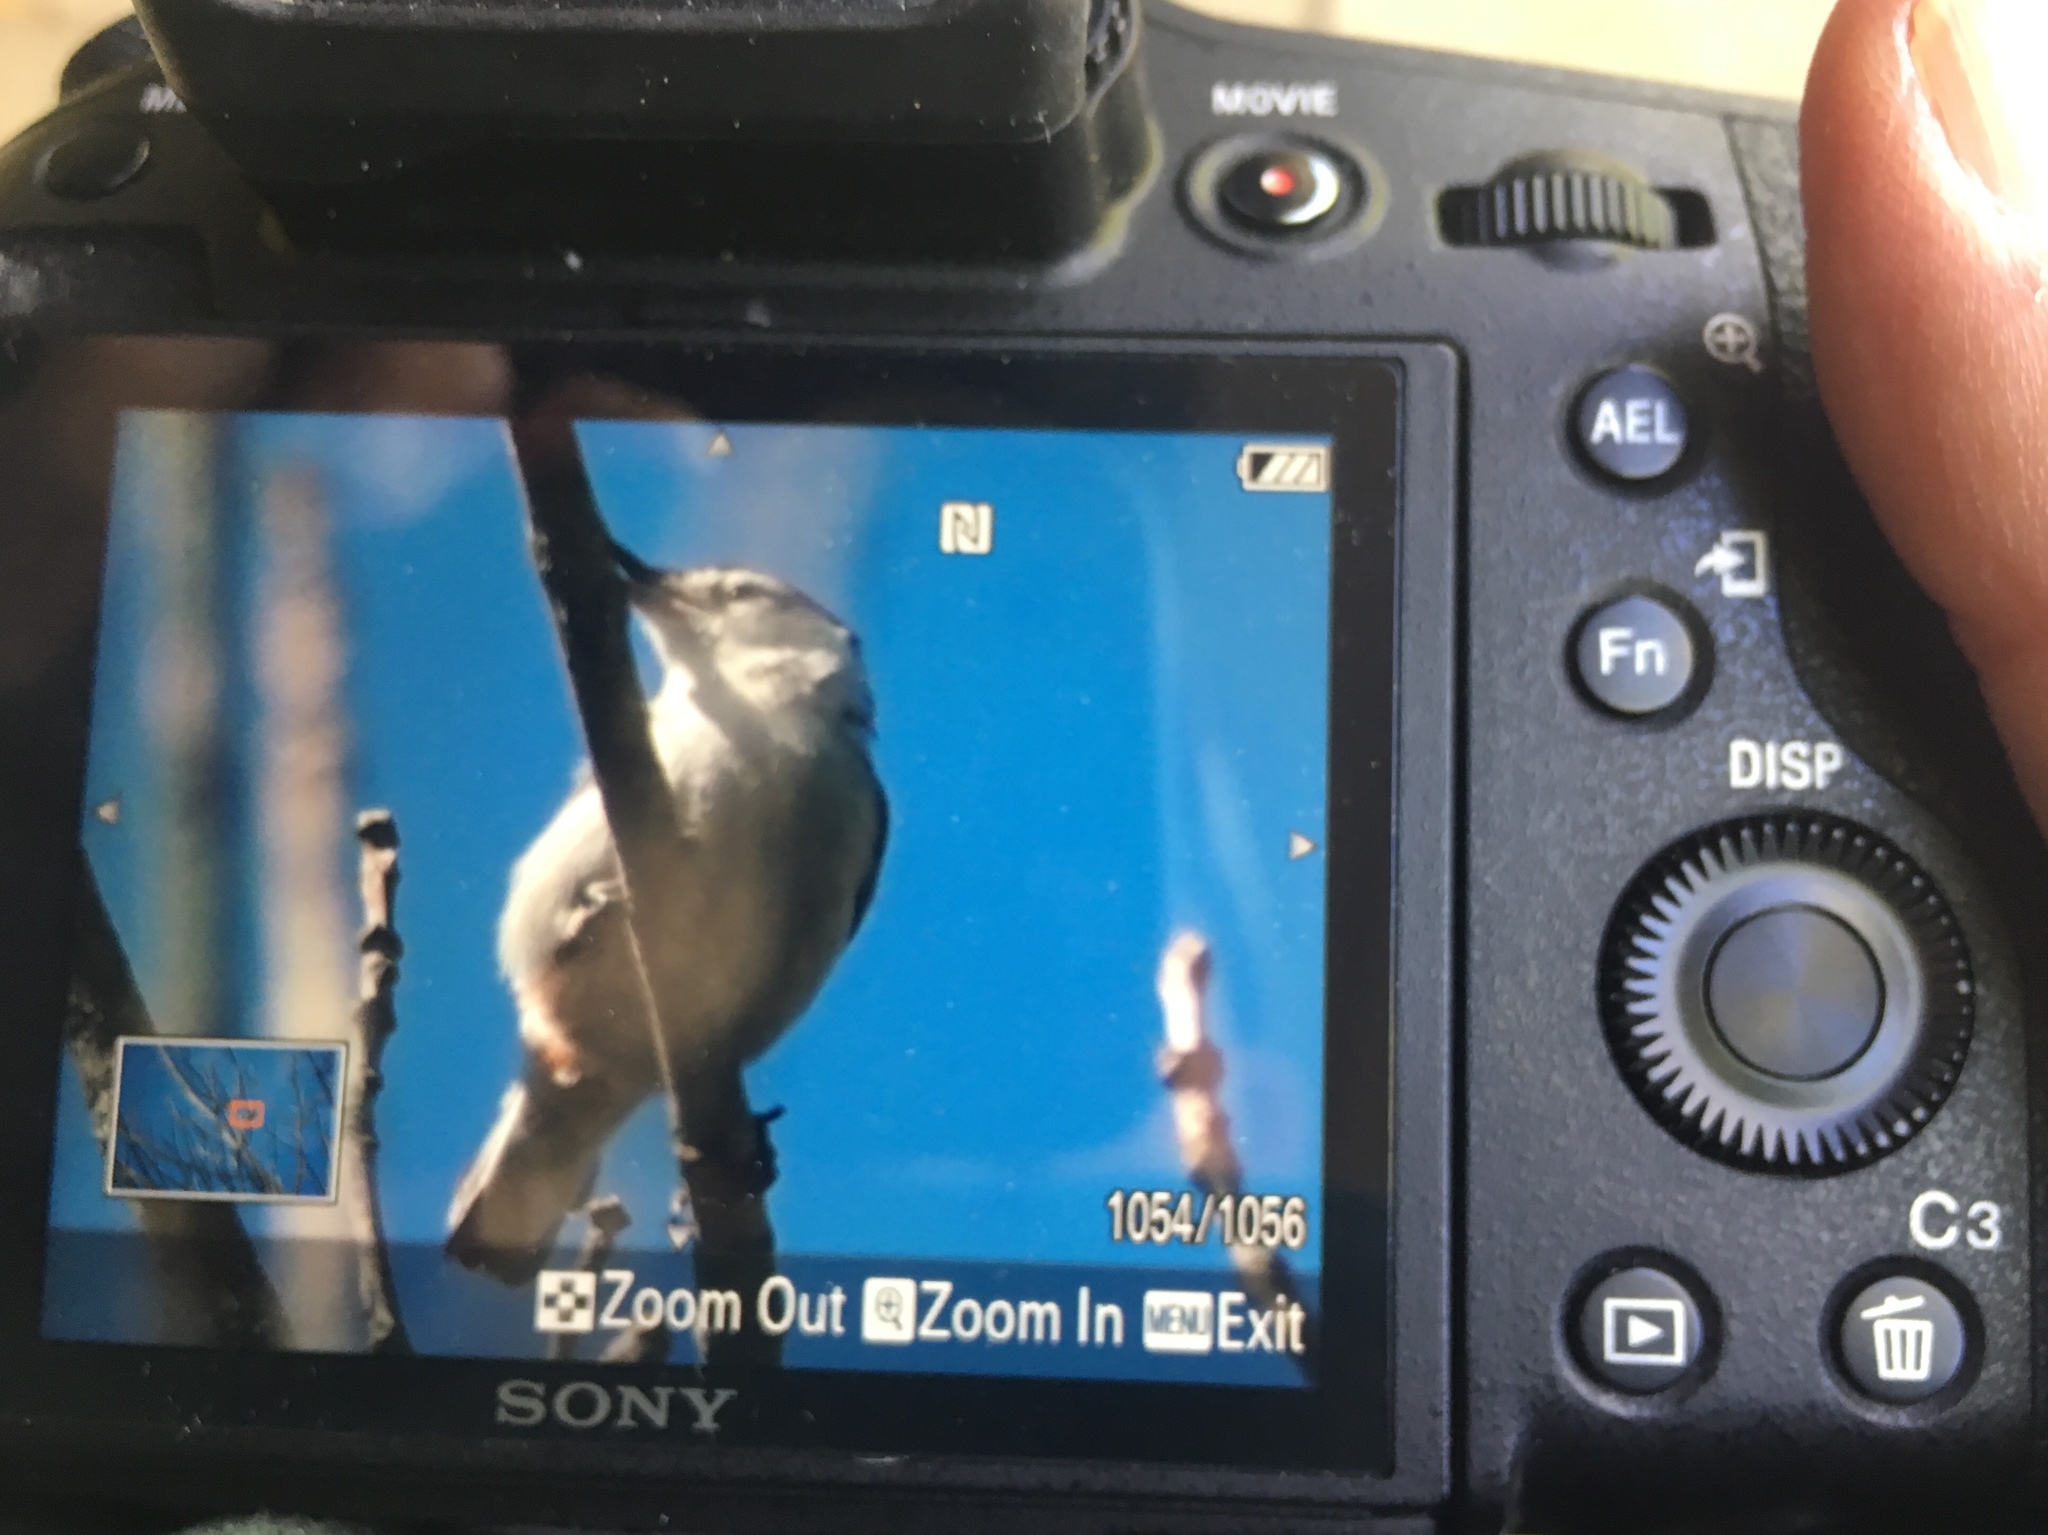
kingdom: Animalia
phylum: Chordata
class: Aves
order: Passeriformes
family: Sittidae
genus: Sitta
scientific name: Sitta carolinensis
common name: White-breasted nuthatch
